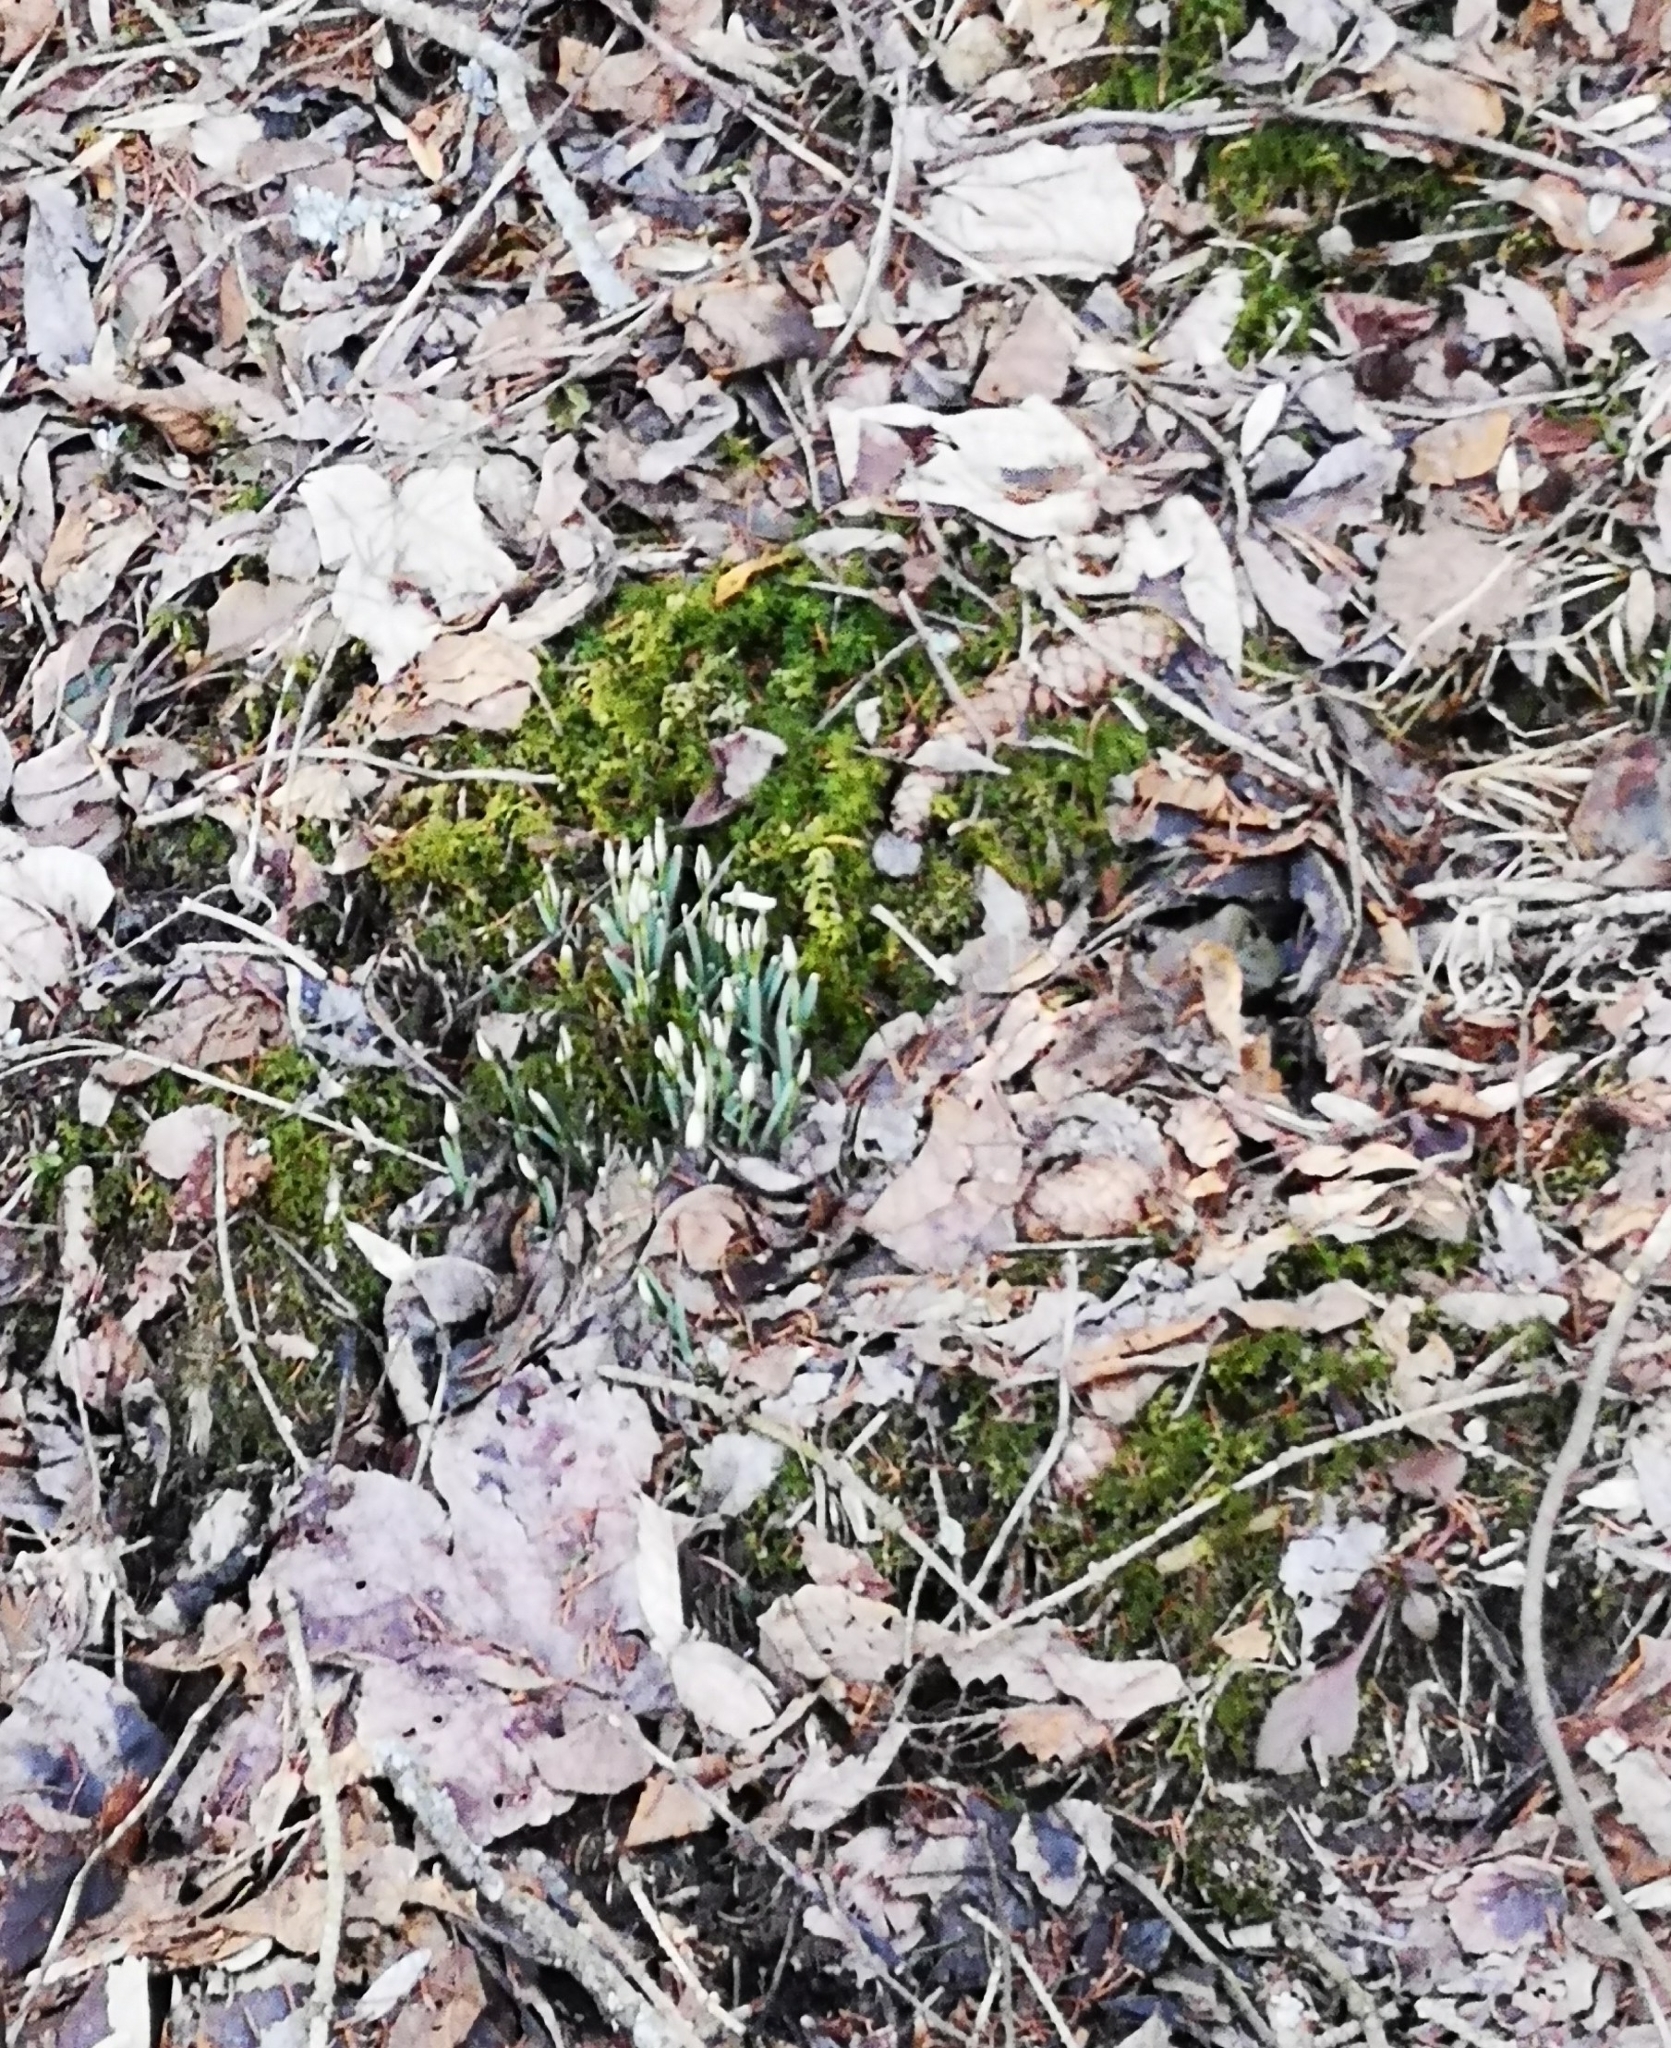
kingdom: Plantae
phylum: Tracheophyta
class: Liliopsida
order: Asparagales
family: Amaryllidaceae
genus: Galanthus
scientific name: Galanthus nivalis
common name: Snowdrop
